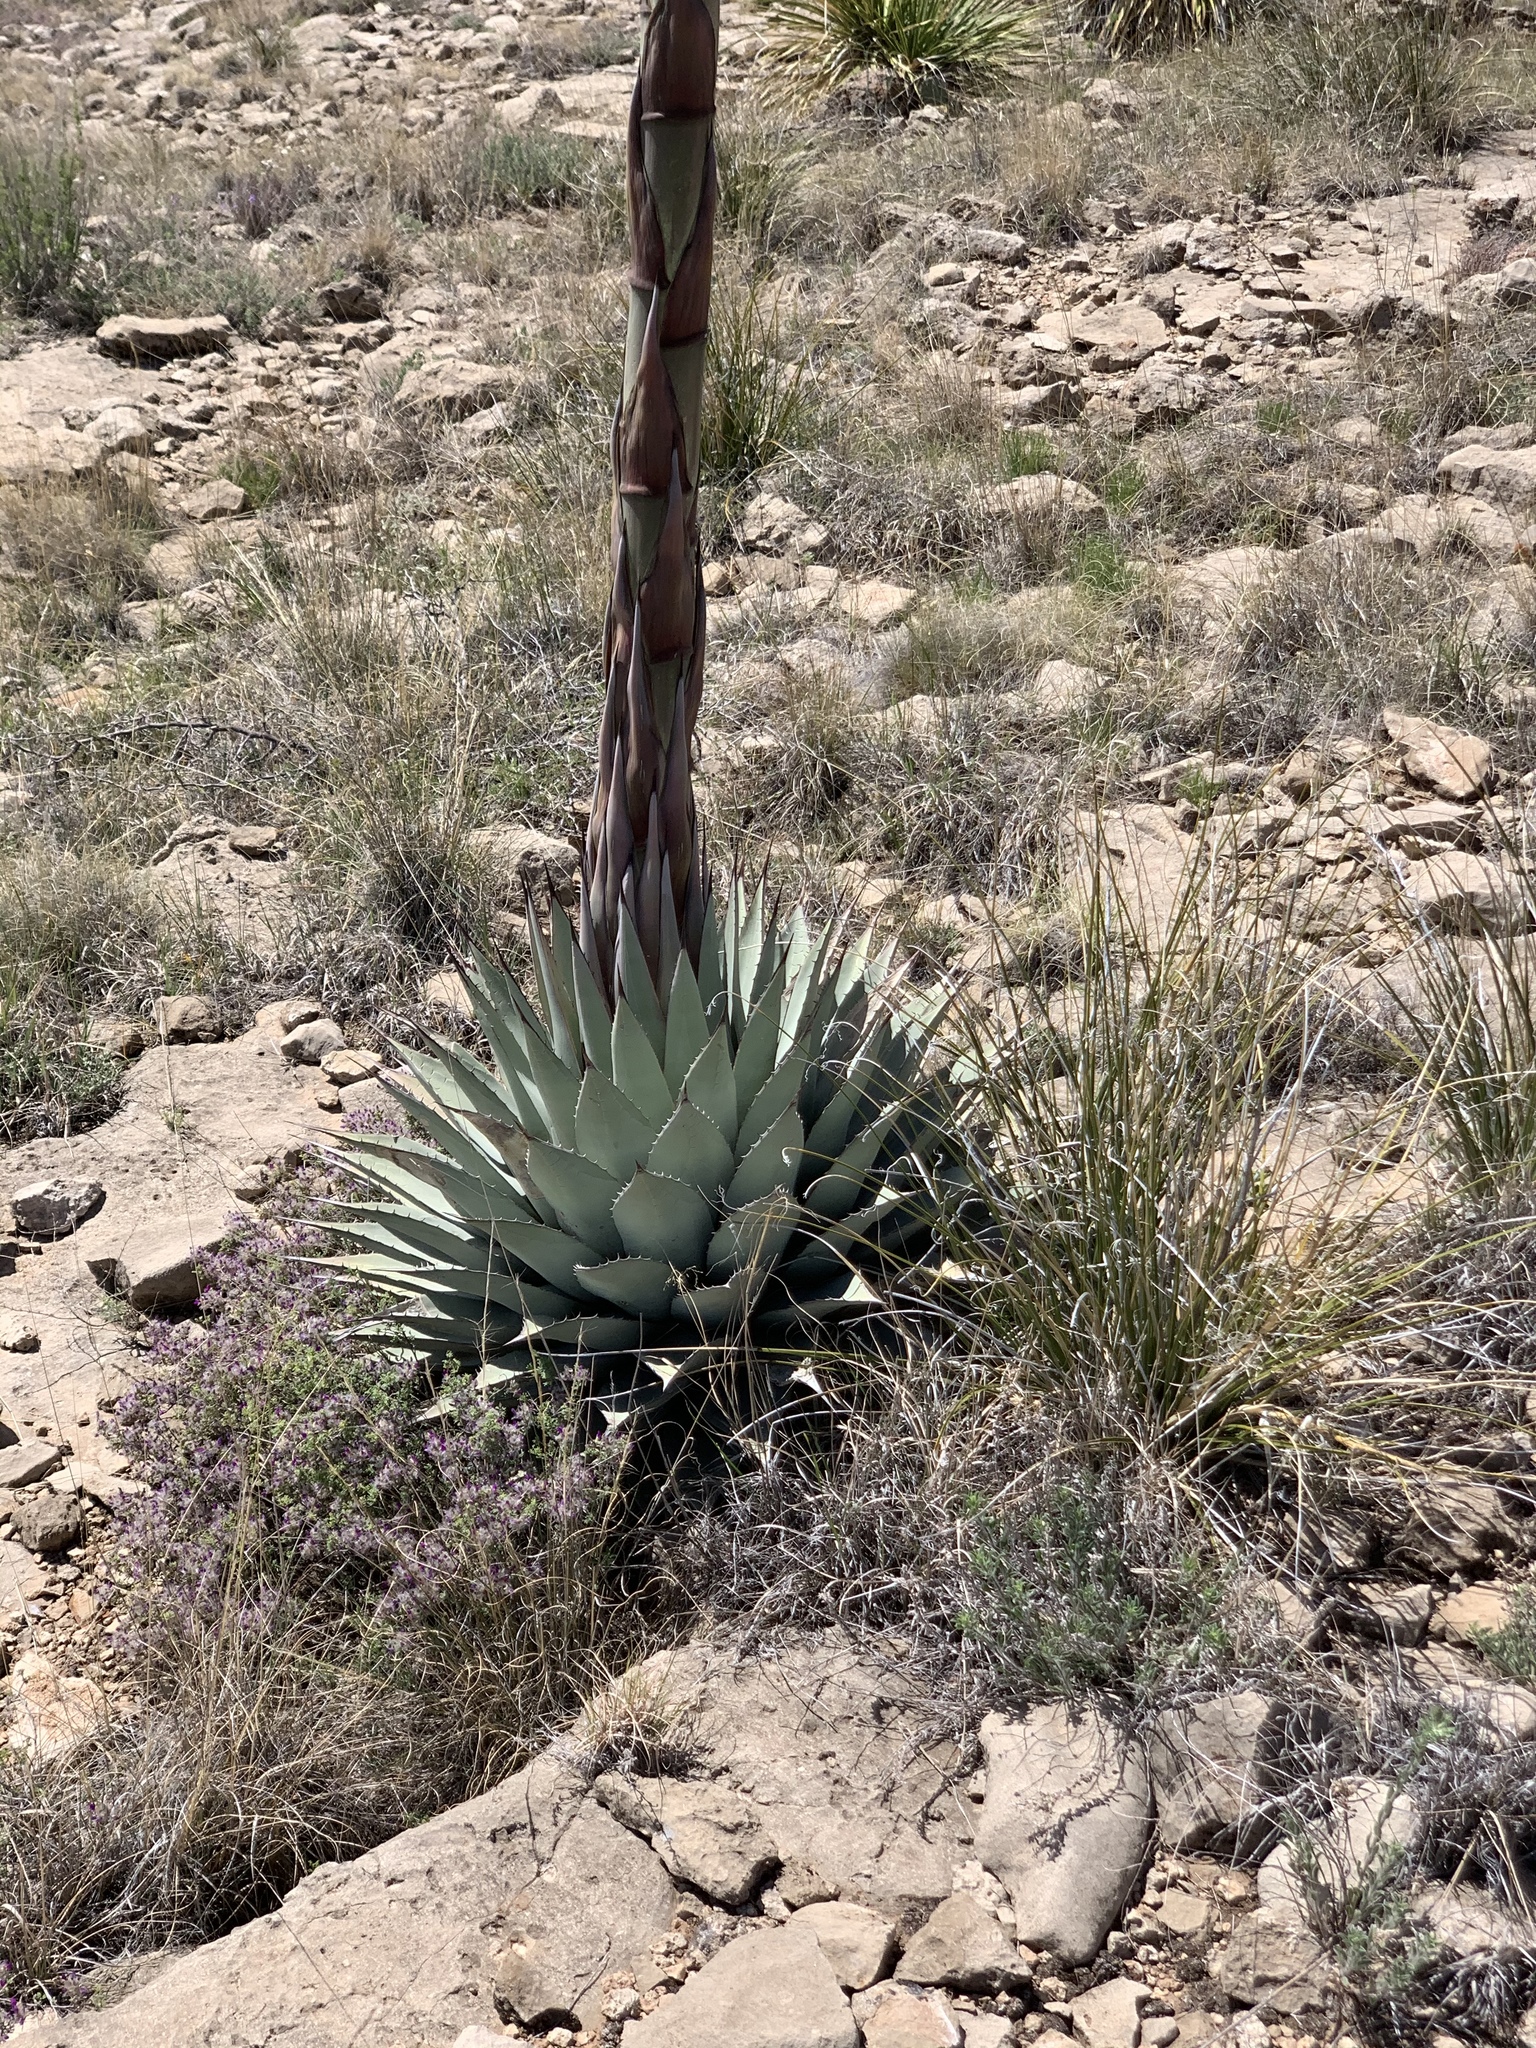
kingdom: Plantae
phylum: Tracheophyta
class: Liliopsida
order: Asparagales
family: Asparagaceae
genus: Agave
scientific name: Agave parryi
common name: Parry's agave
